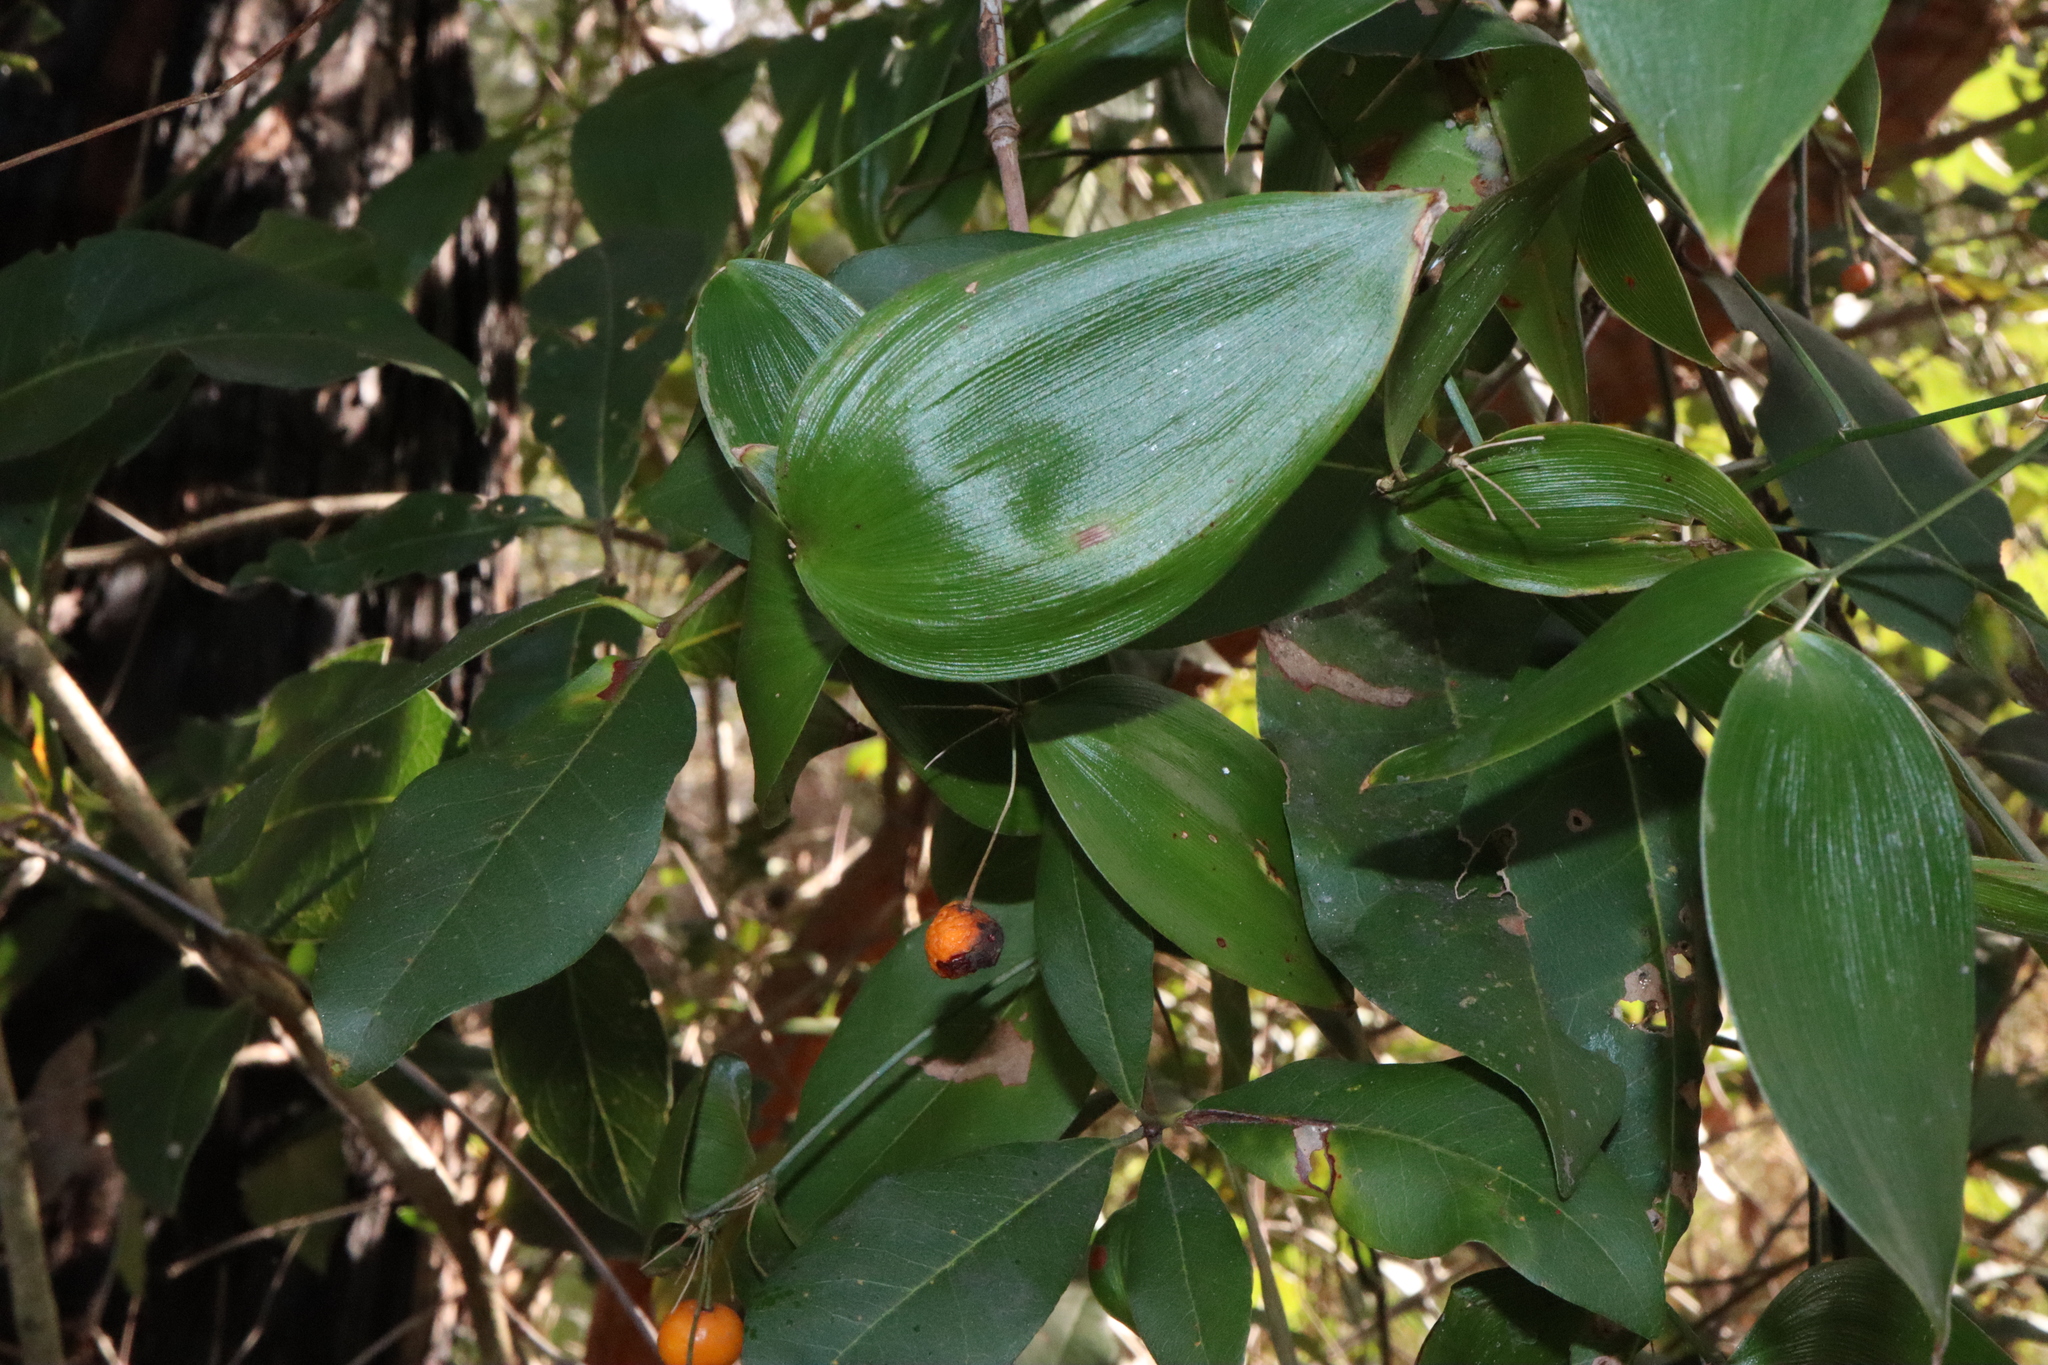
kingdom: Plantae
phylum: Tracheophyta
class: Liliopsida
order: Asparagales
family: Asparagaceae
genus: Eustrephus
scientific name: Eustrephus latifolius
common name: Orangevine
